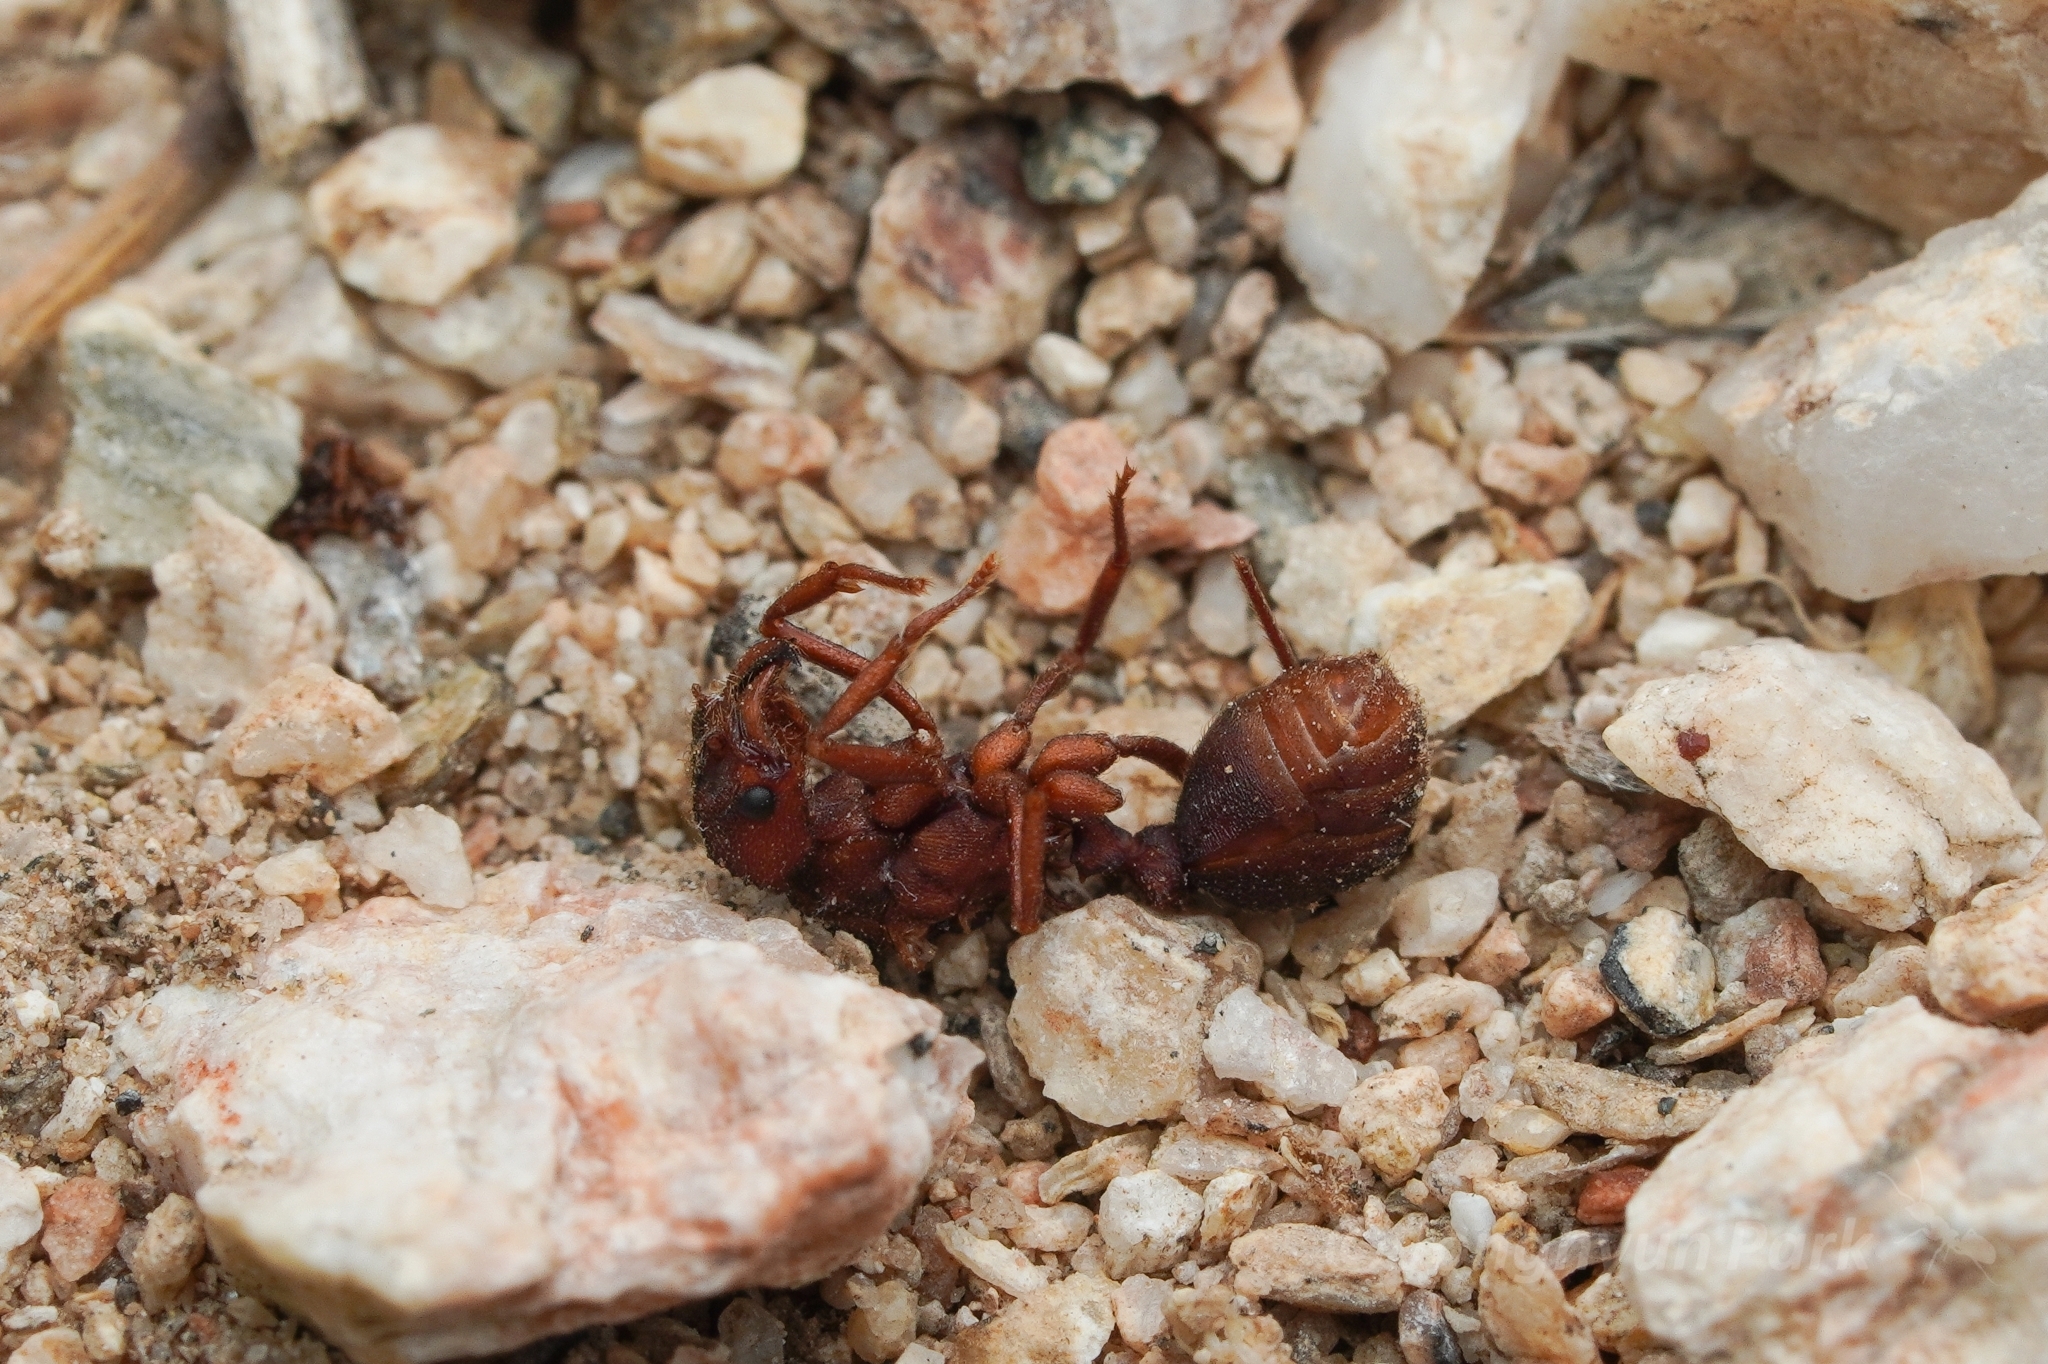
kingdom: Animalia
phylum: Arthropoda
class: Insecta
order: Hymenoptera
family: Formicidae
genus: Acromyrmex
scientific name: Acromyrmex versicolor
